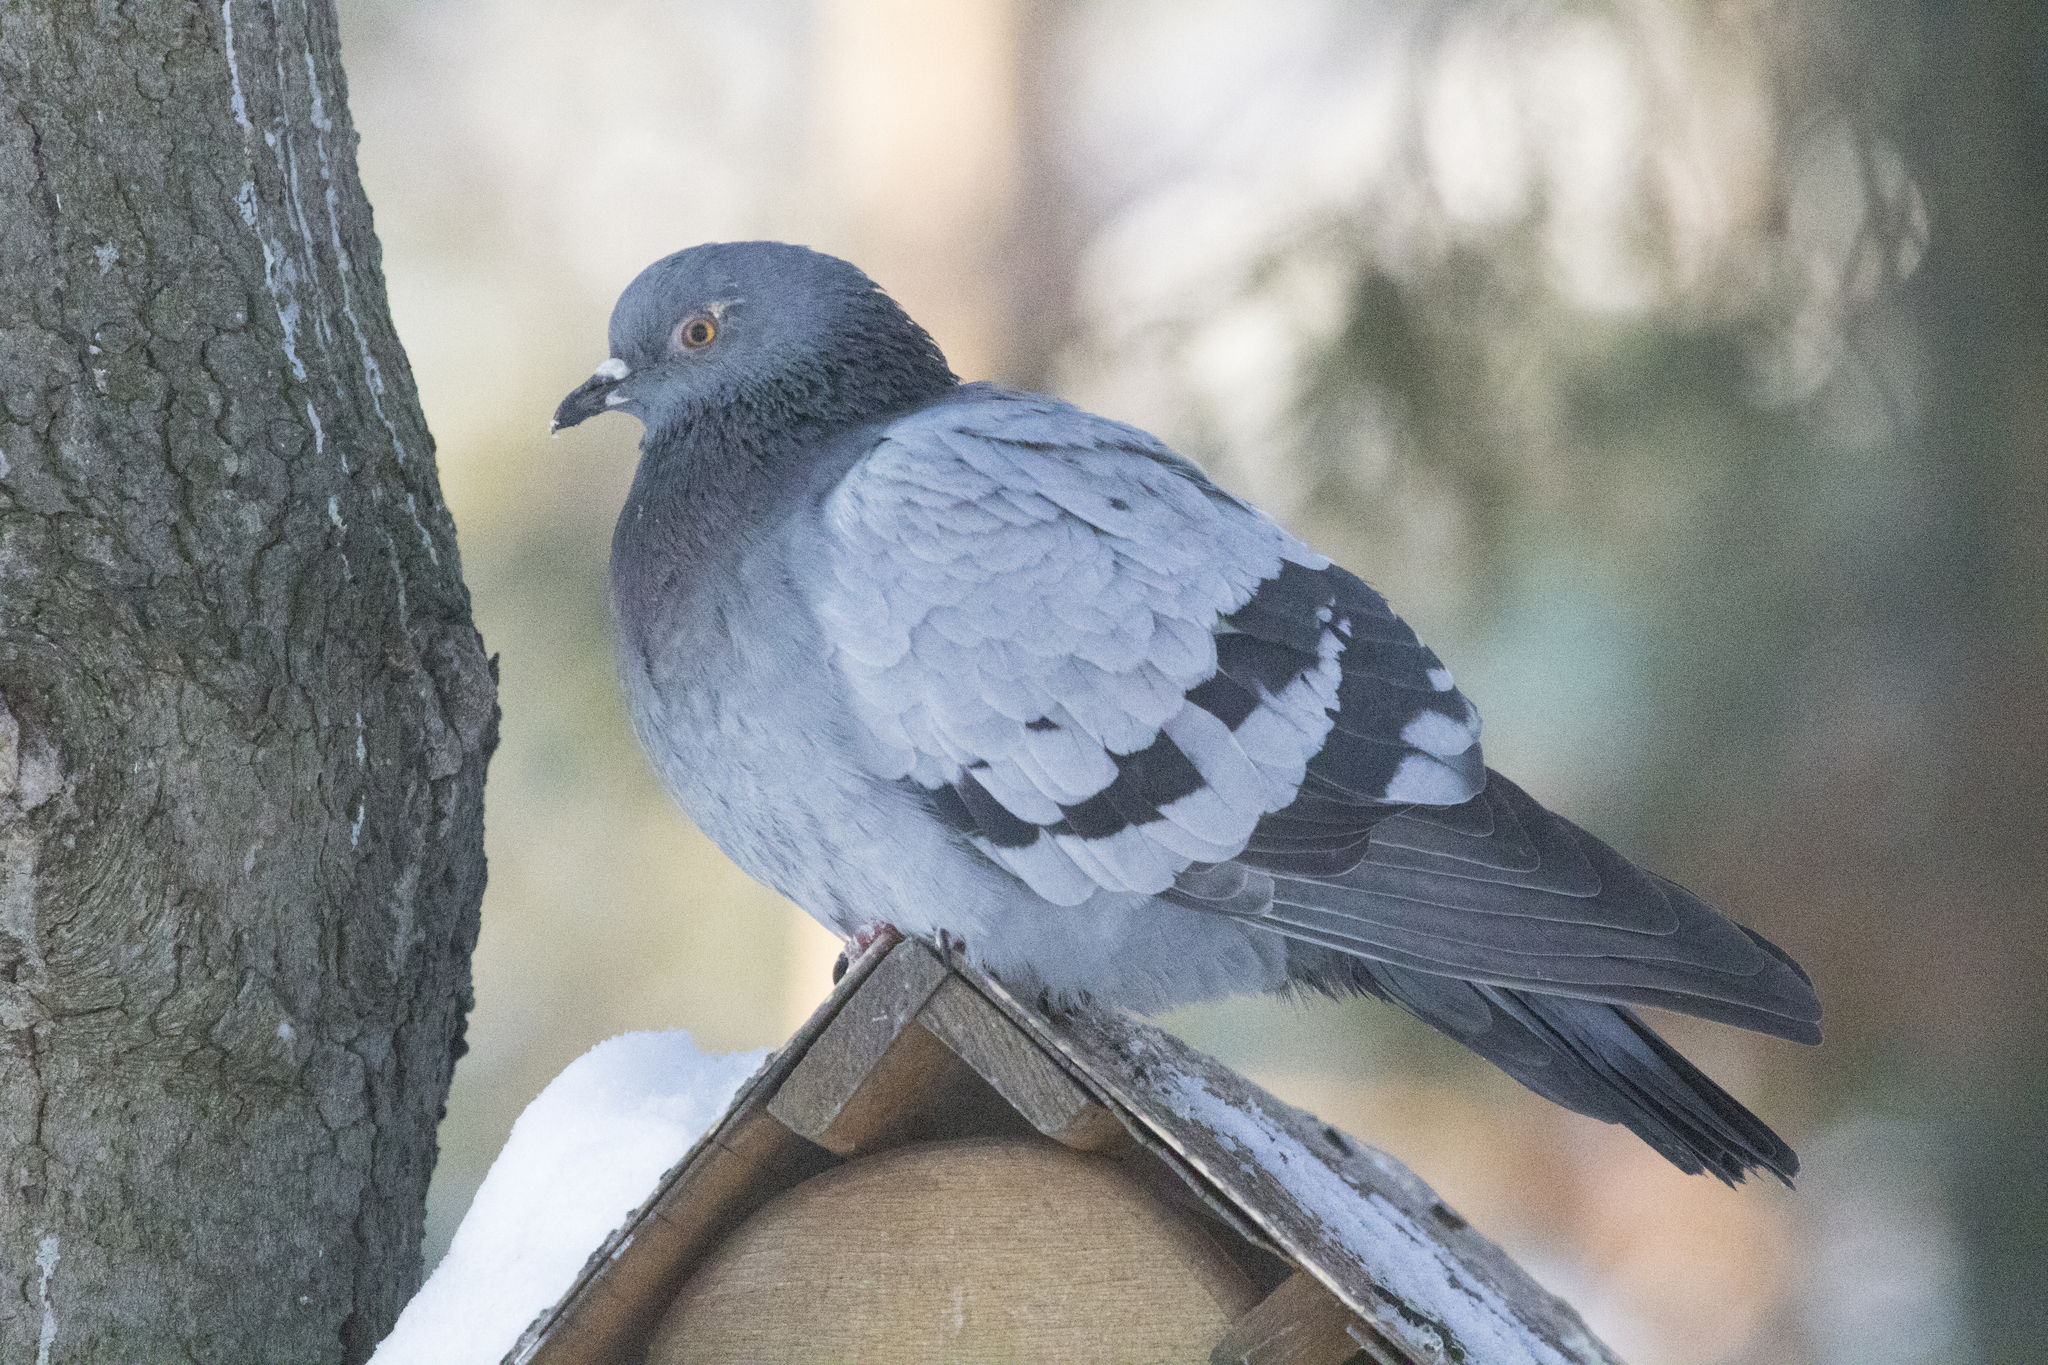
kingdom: Animalia
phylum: Chordata
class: Aves
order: Columbiformes
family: Columbidae
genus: Columba
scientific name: Columba livia
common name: Rock pigeon
